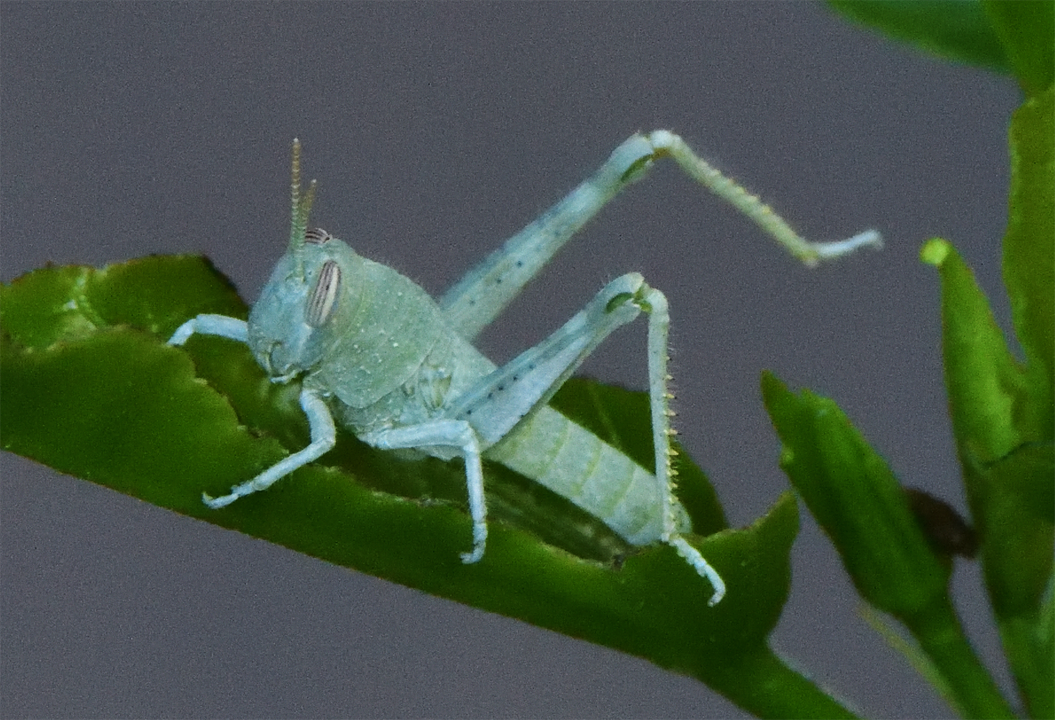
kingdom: Animalia
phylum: Arthropoda
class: Insecta
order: Orthoptera
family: Acrididae
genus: Schistocerca
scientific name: Schistocerca nitens
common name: Vagrant grasshopper
